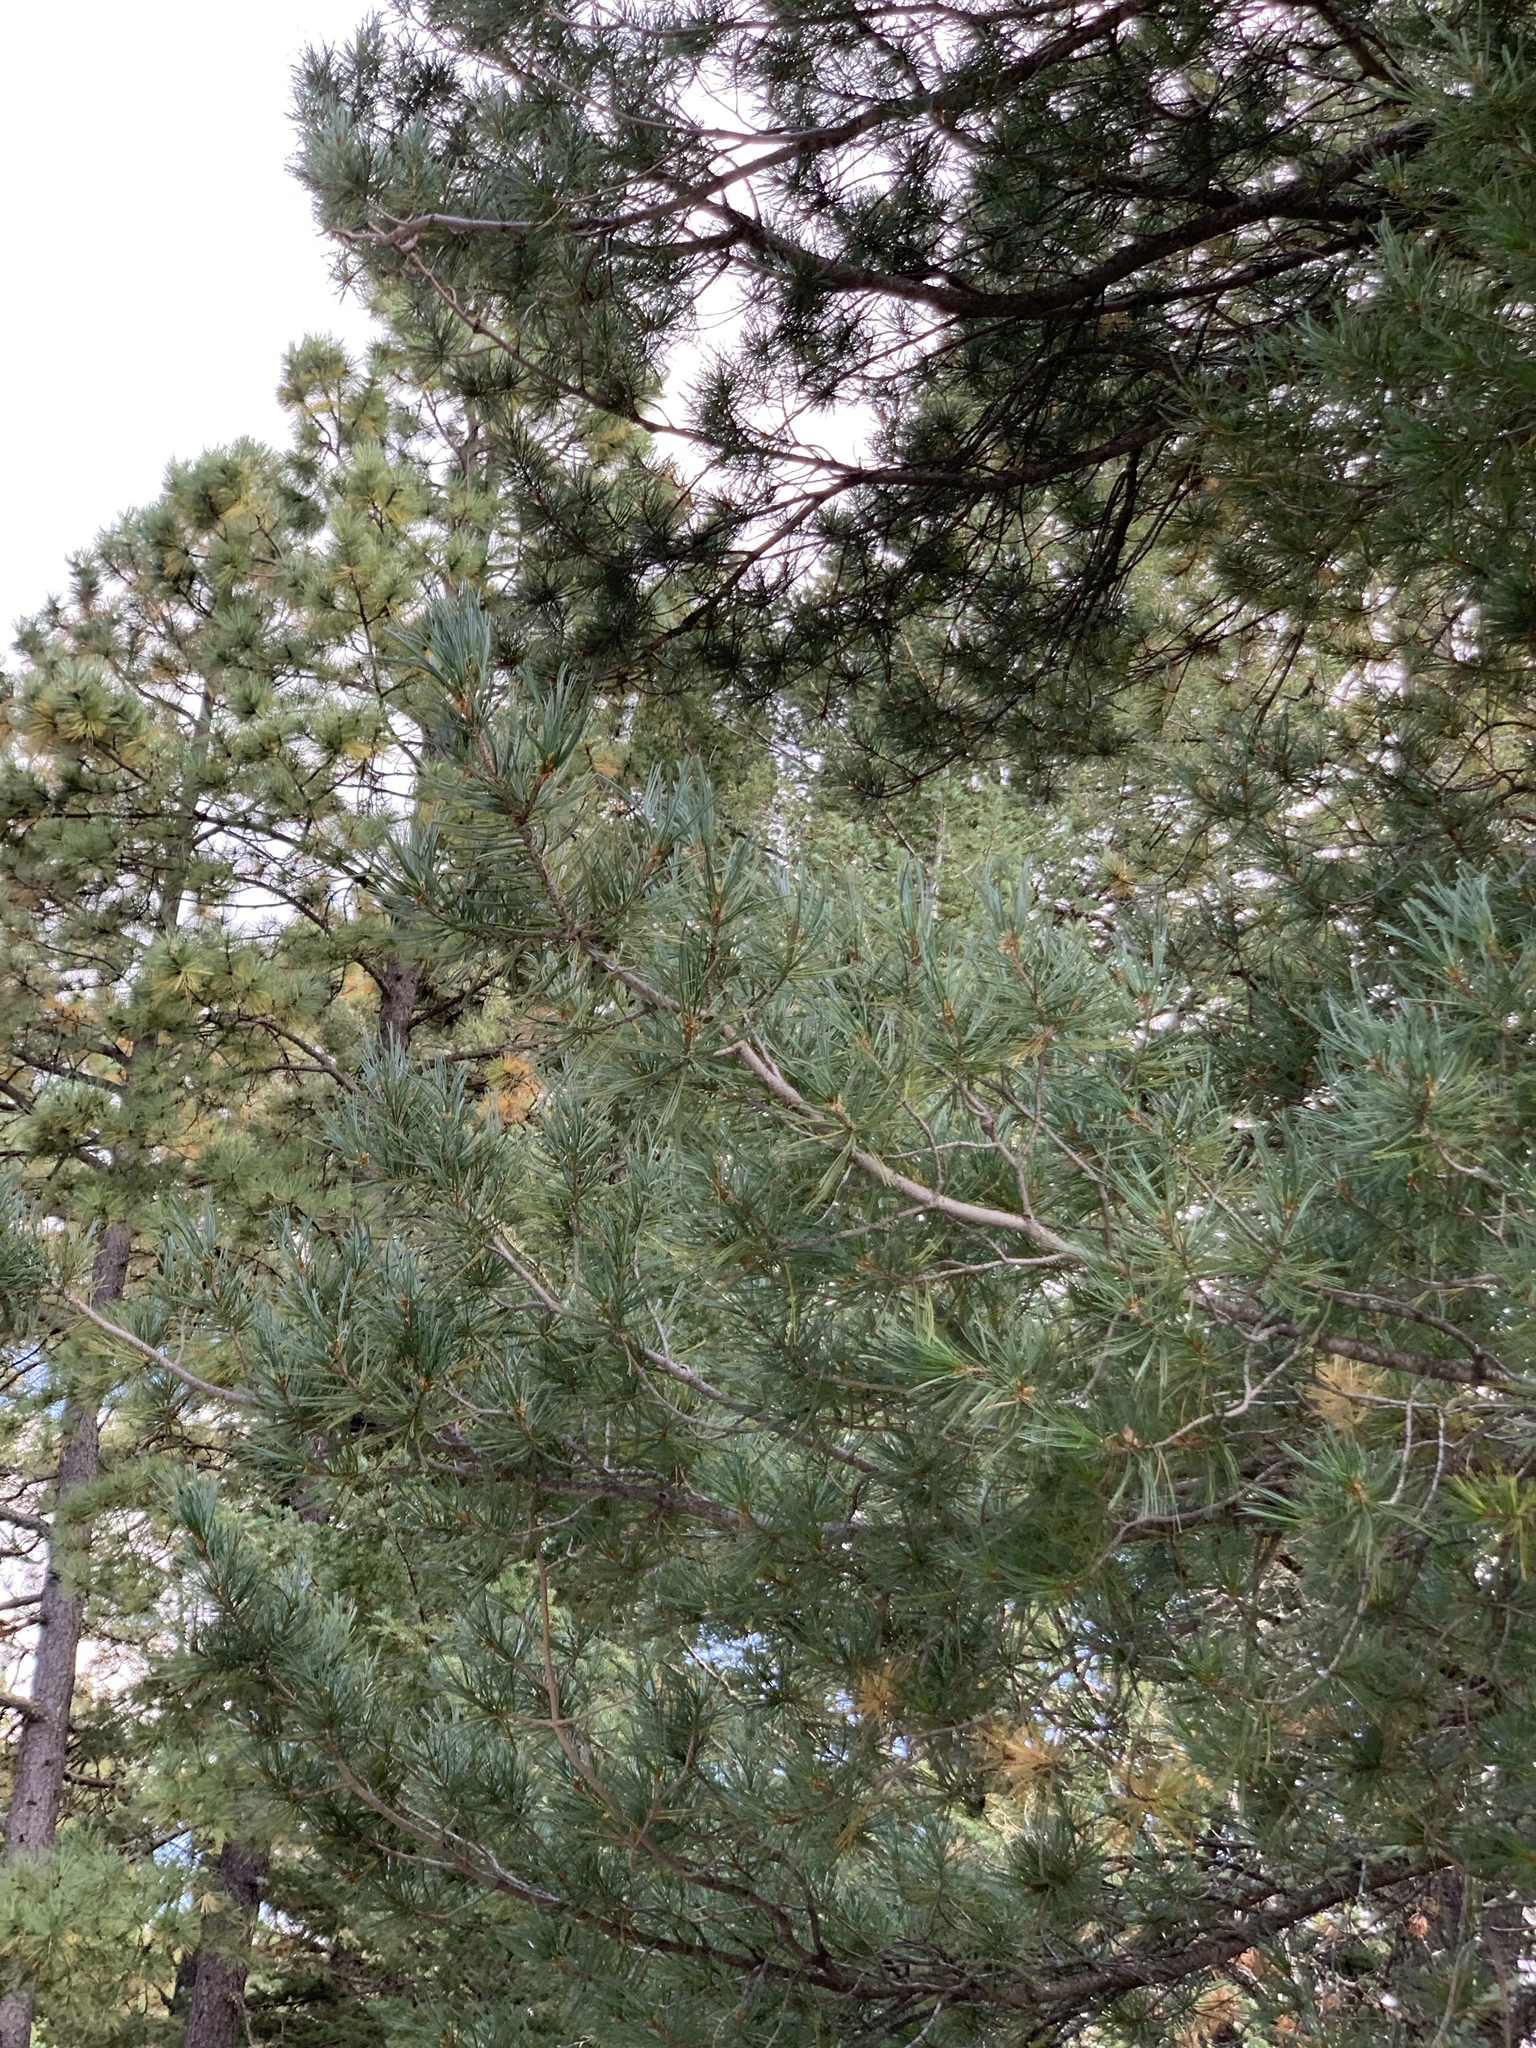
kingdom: Plantae
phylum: Tracheophyta
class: Pinopsida
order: Pinales
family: Pinaceae
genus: Pinus
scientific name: Pinus strobiformis
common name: Southwestern white pine
